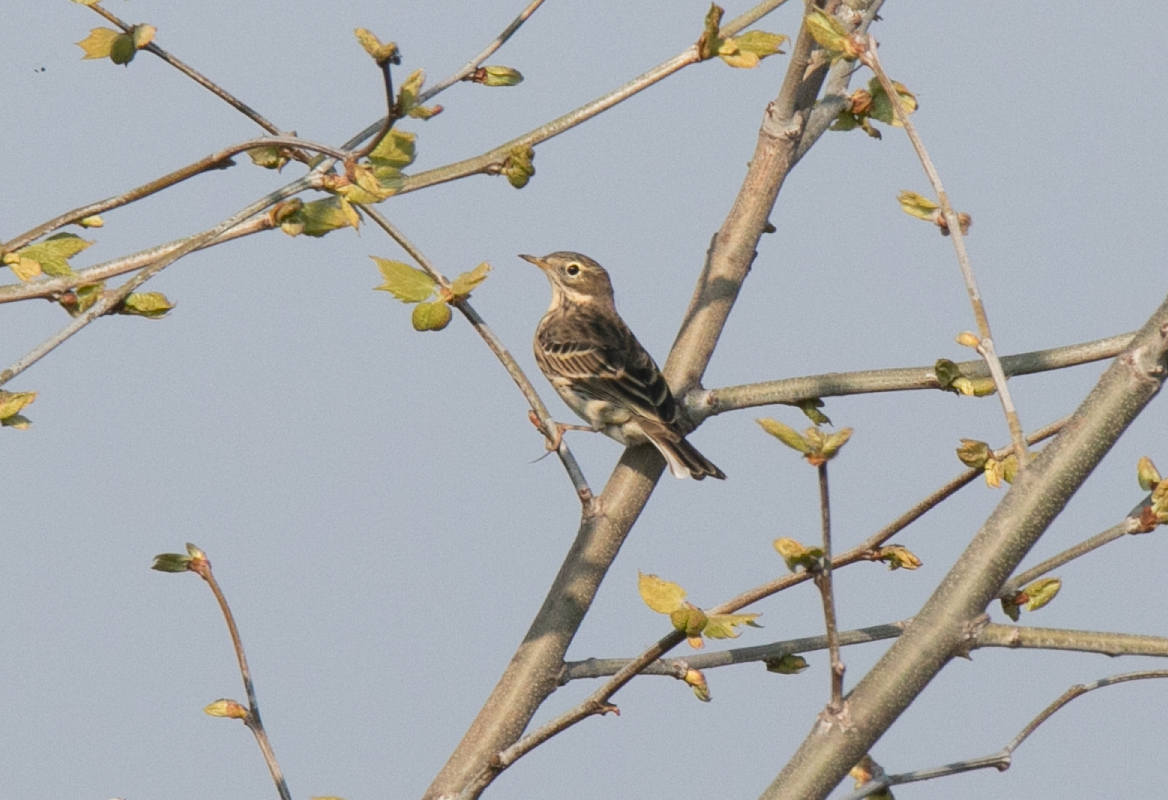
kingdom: Animalia
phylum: Chordata
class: Aves
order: Passeriformes
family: Motacillidae
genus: Anthus
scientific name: Anthus pratensis
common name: Meadow pipit
